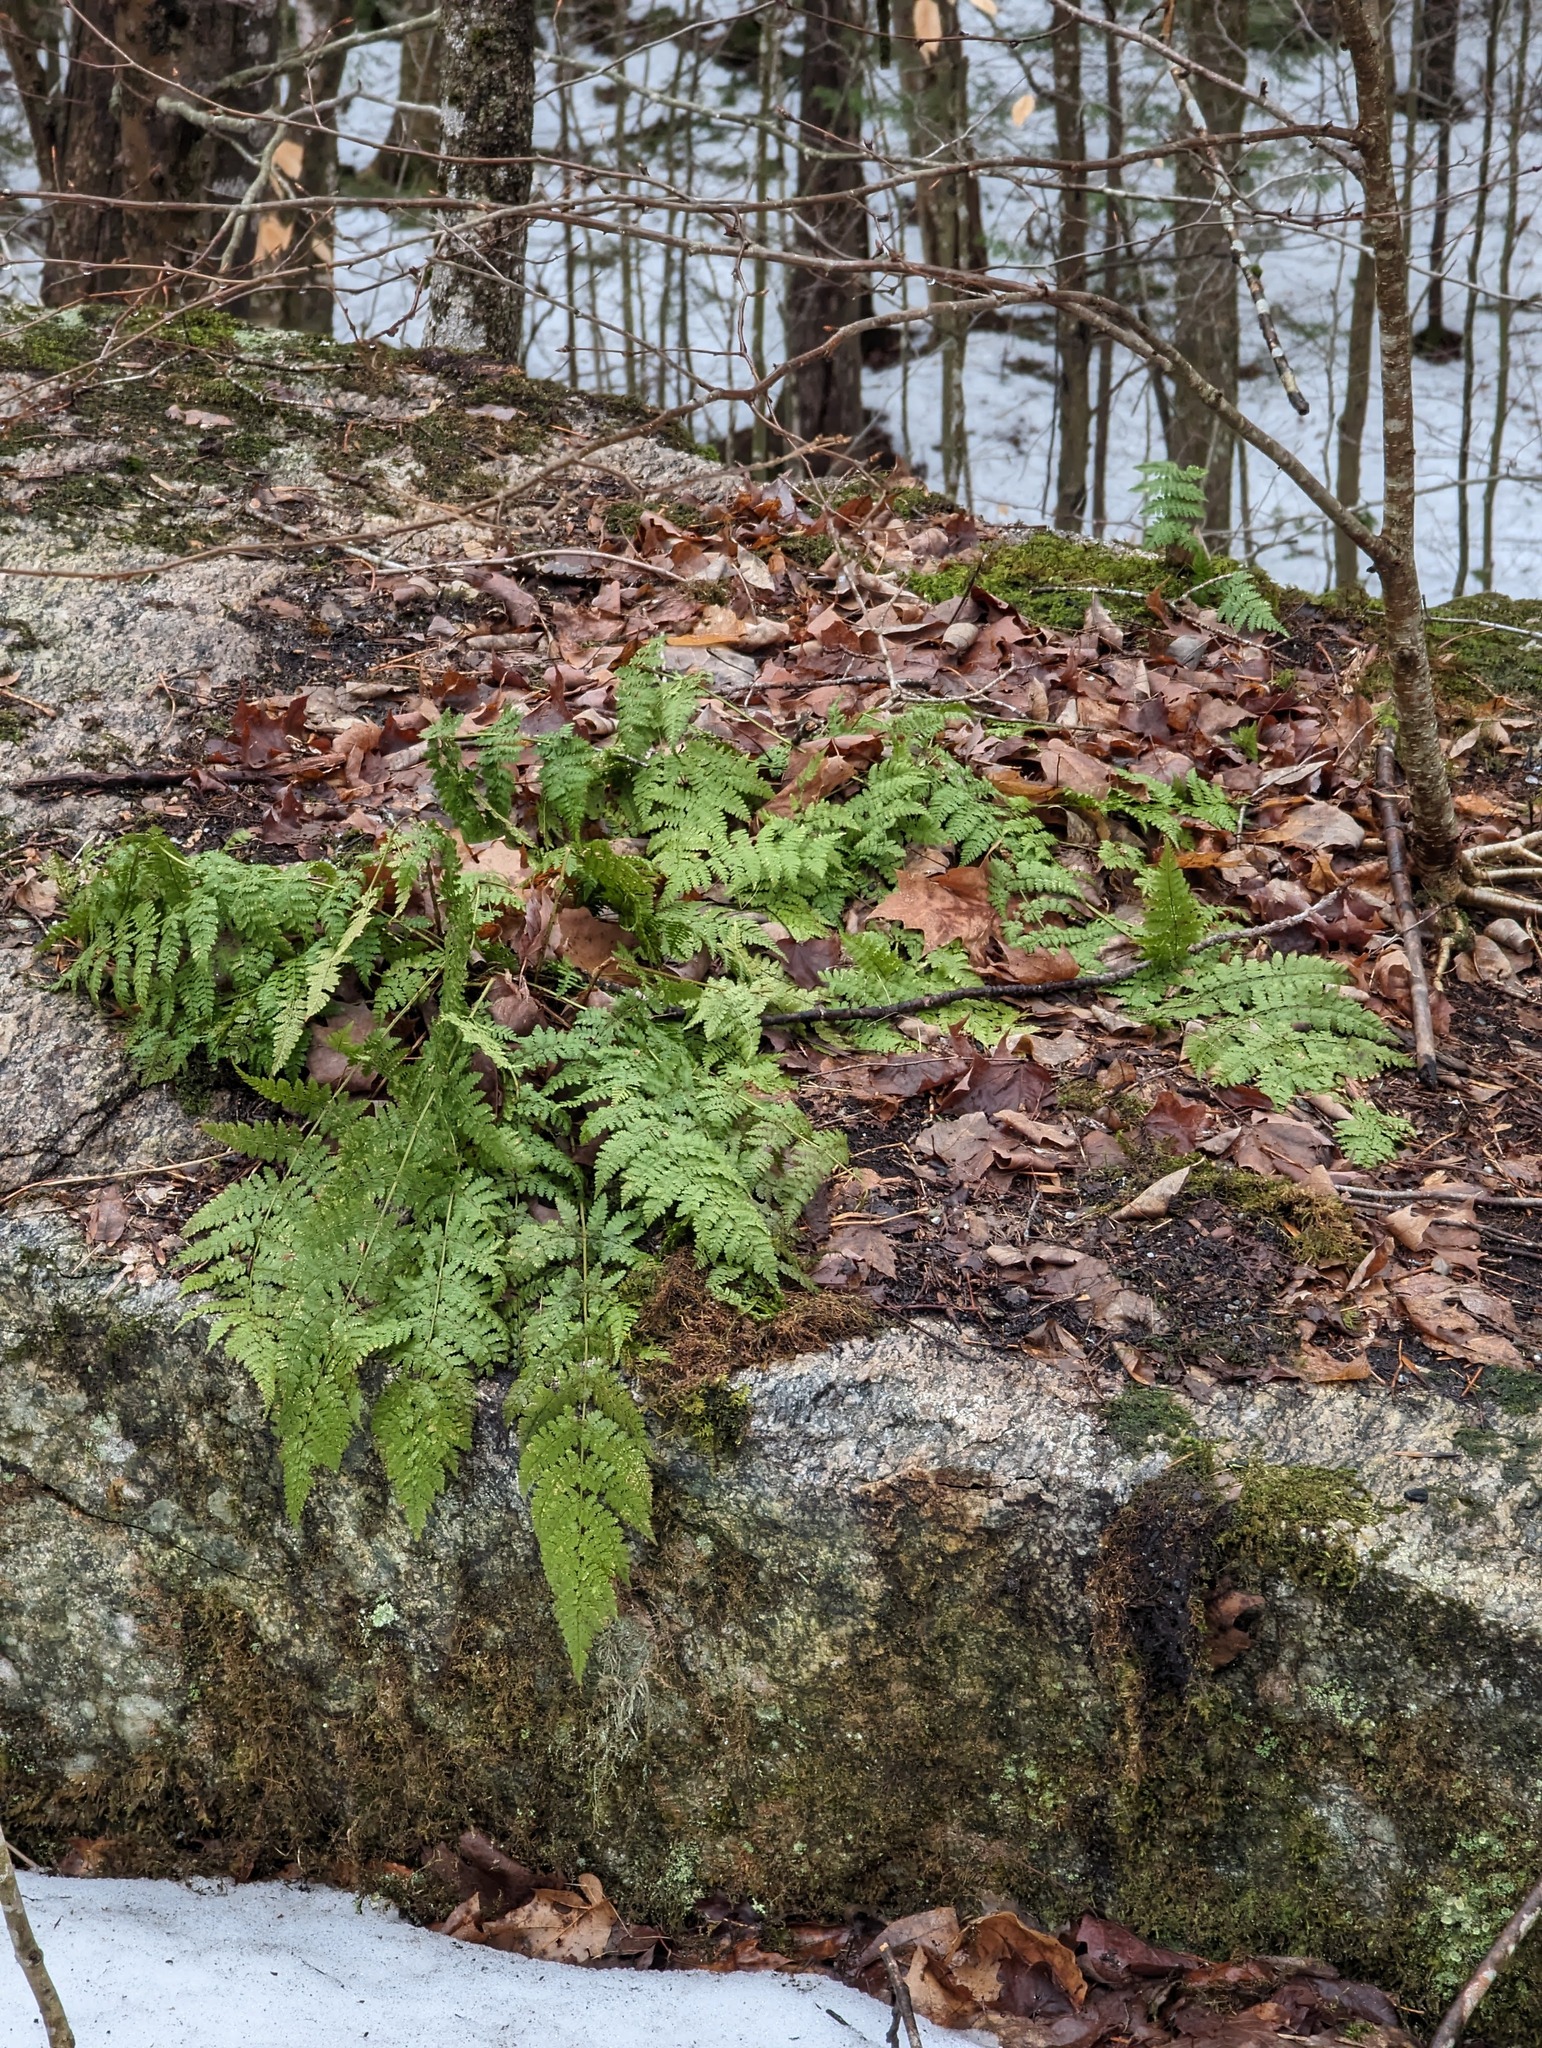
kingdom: Plantae
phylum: Tracheophyta
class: Polypodiopsida
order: Polypodiales
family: Dryopteridaceae
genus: Dryopteris
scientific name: Dryopteris intermedia
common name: Evergreen wood fern
